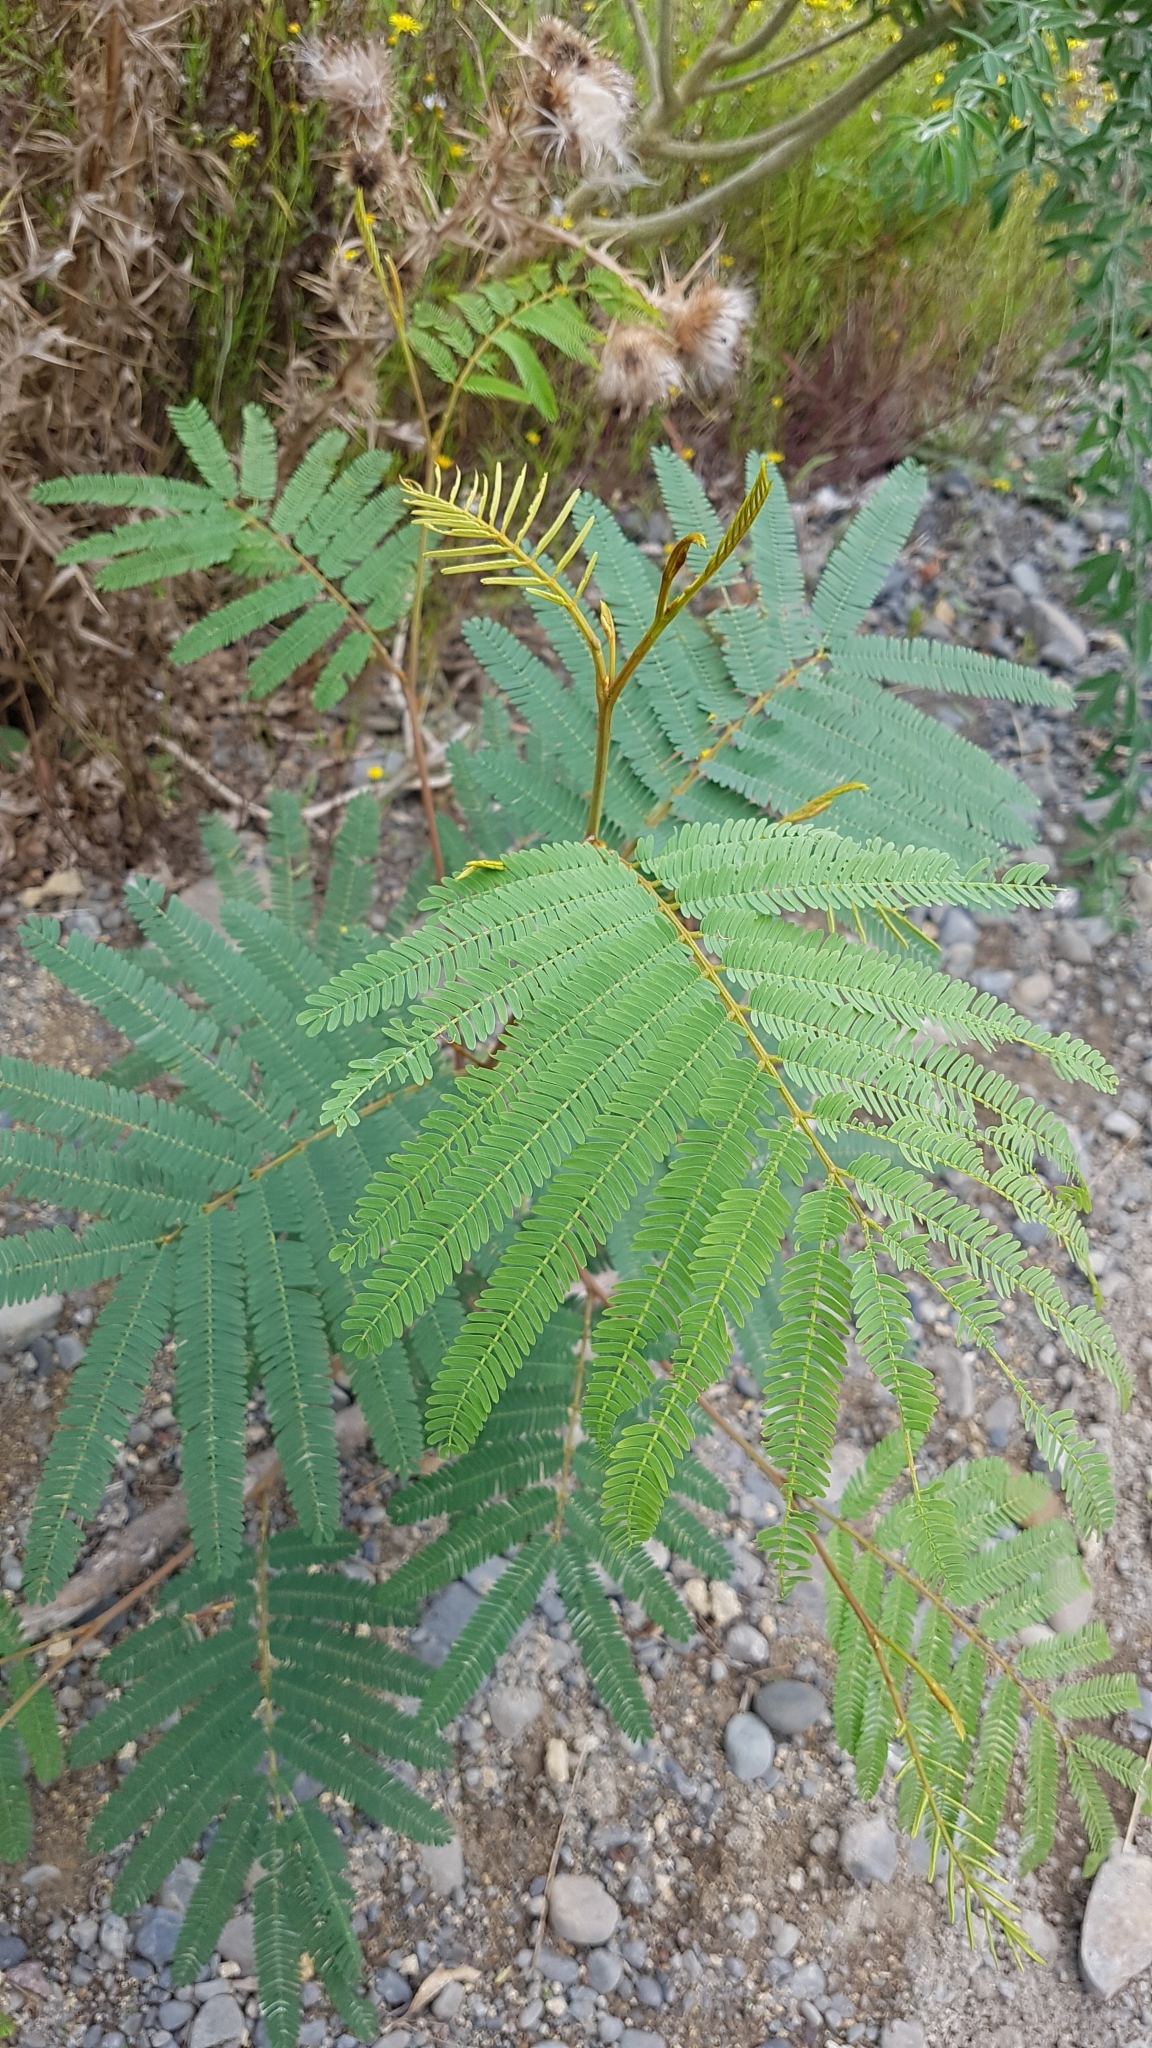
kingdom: Plantae
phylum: Tracheophyta
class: Magnoliopsida
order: Fabales
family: Fabaceae
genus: Paraserianthes
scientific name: Paraserianthes lophantha
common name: Plume albizia
